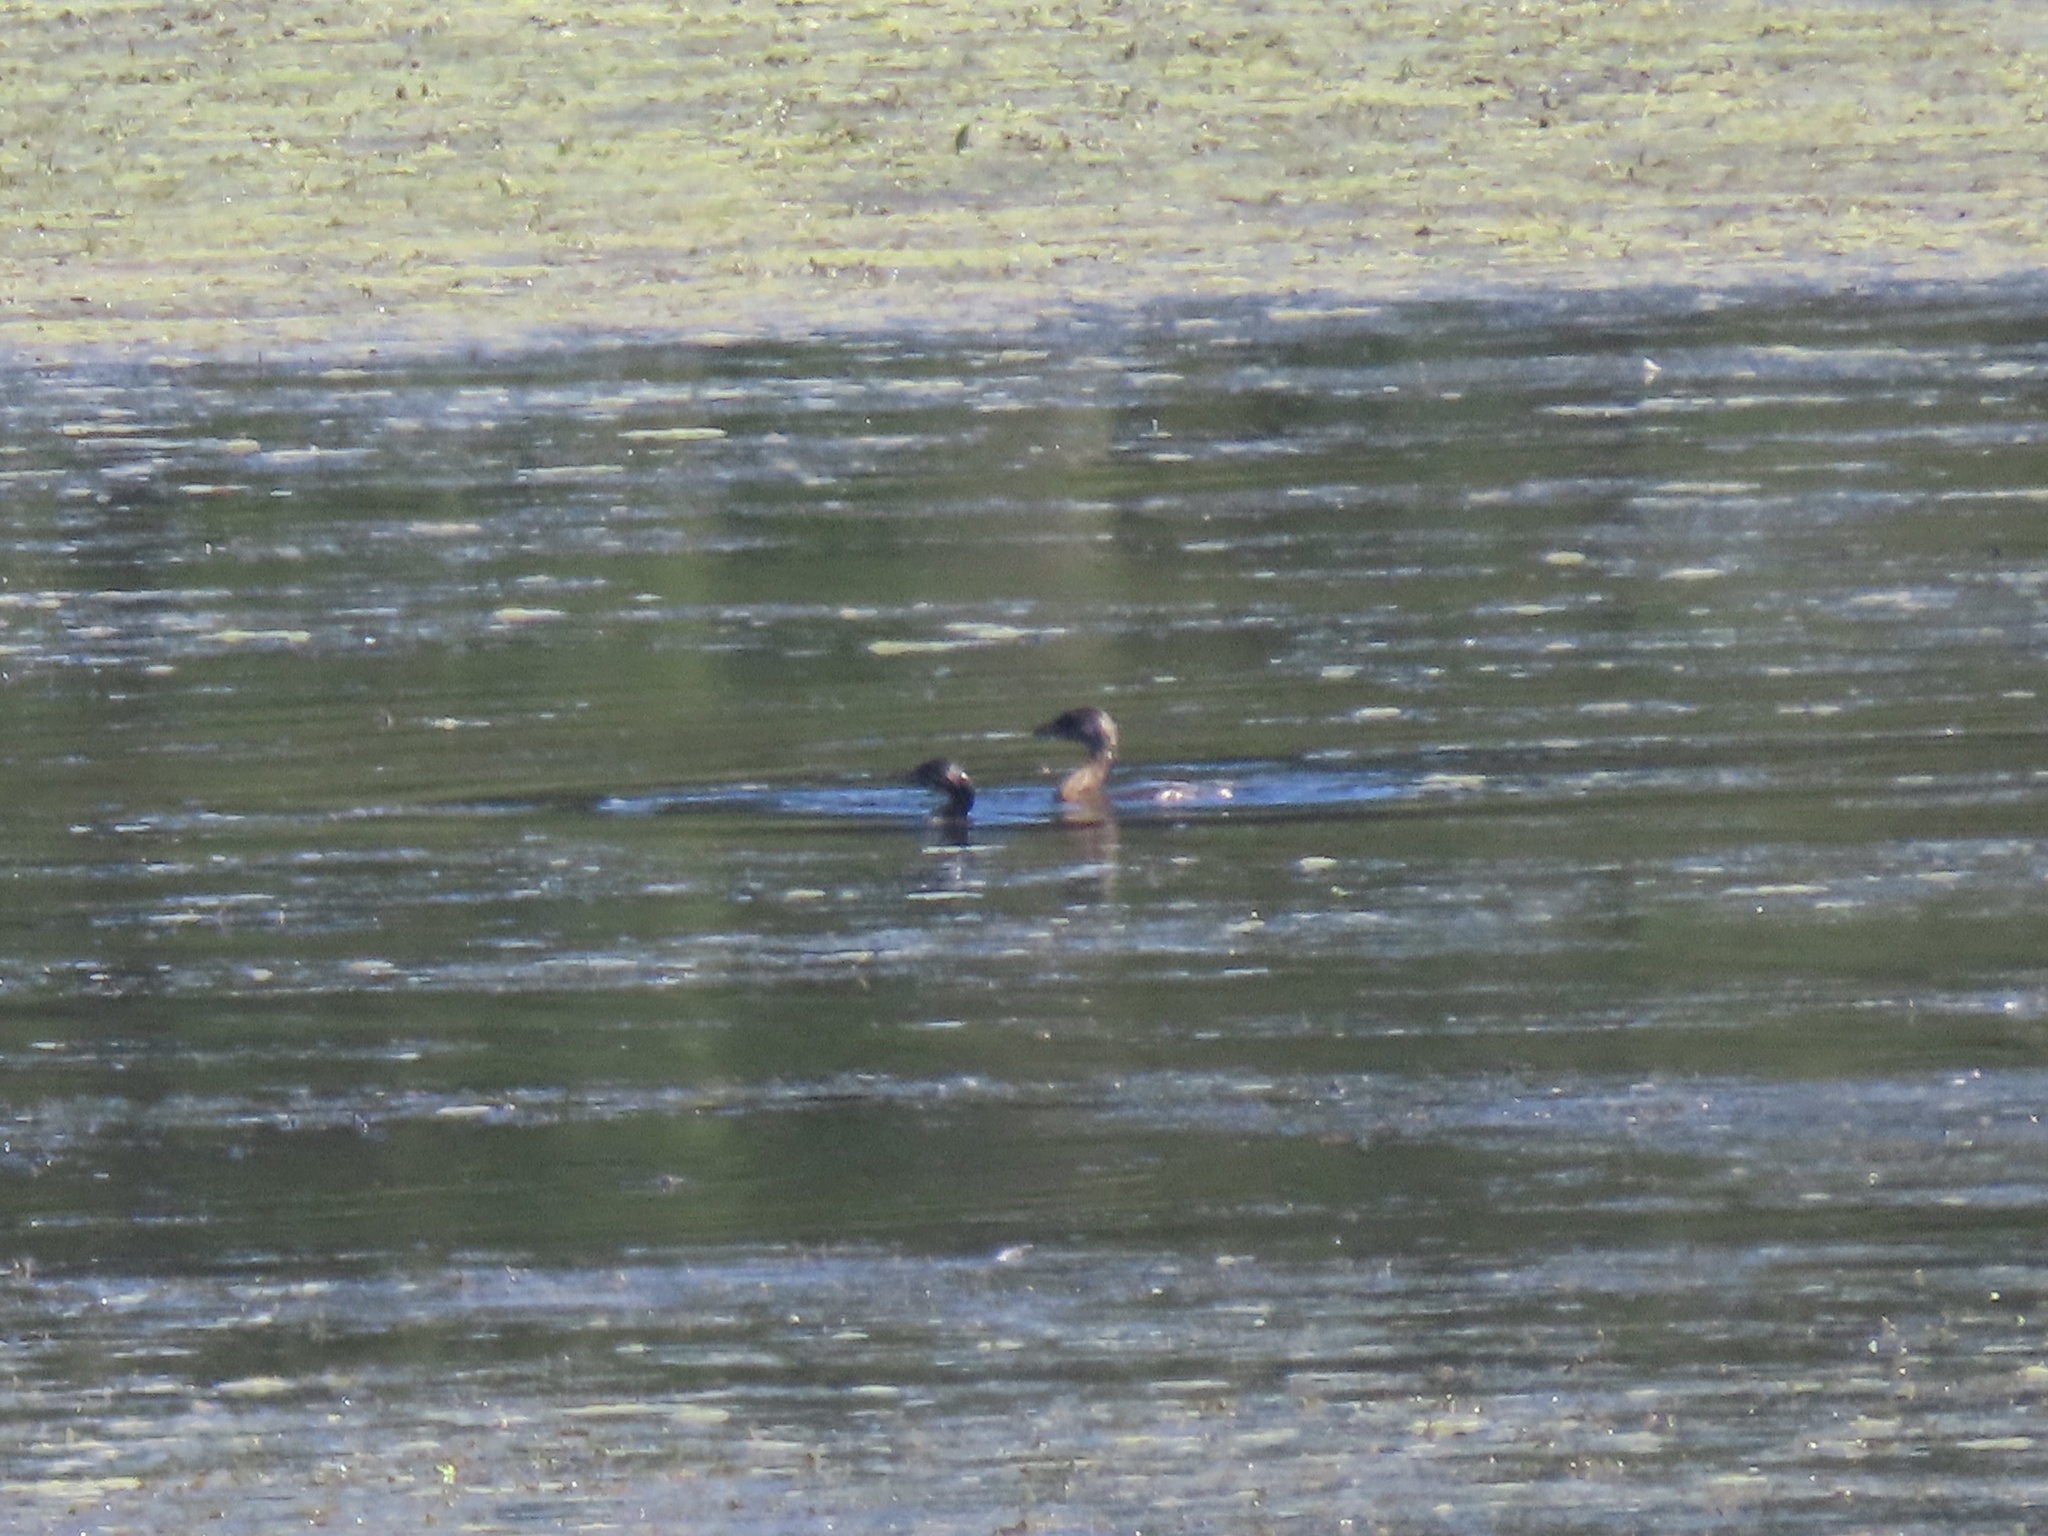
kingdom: Animalia
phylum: Chordata
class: Aves
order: Podicipediformes
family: Podicipedidae
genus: Podilymbus
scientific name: Podilymbus podiceps
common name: Pied-billed grebe
